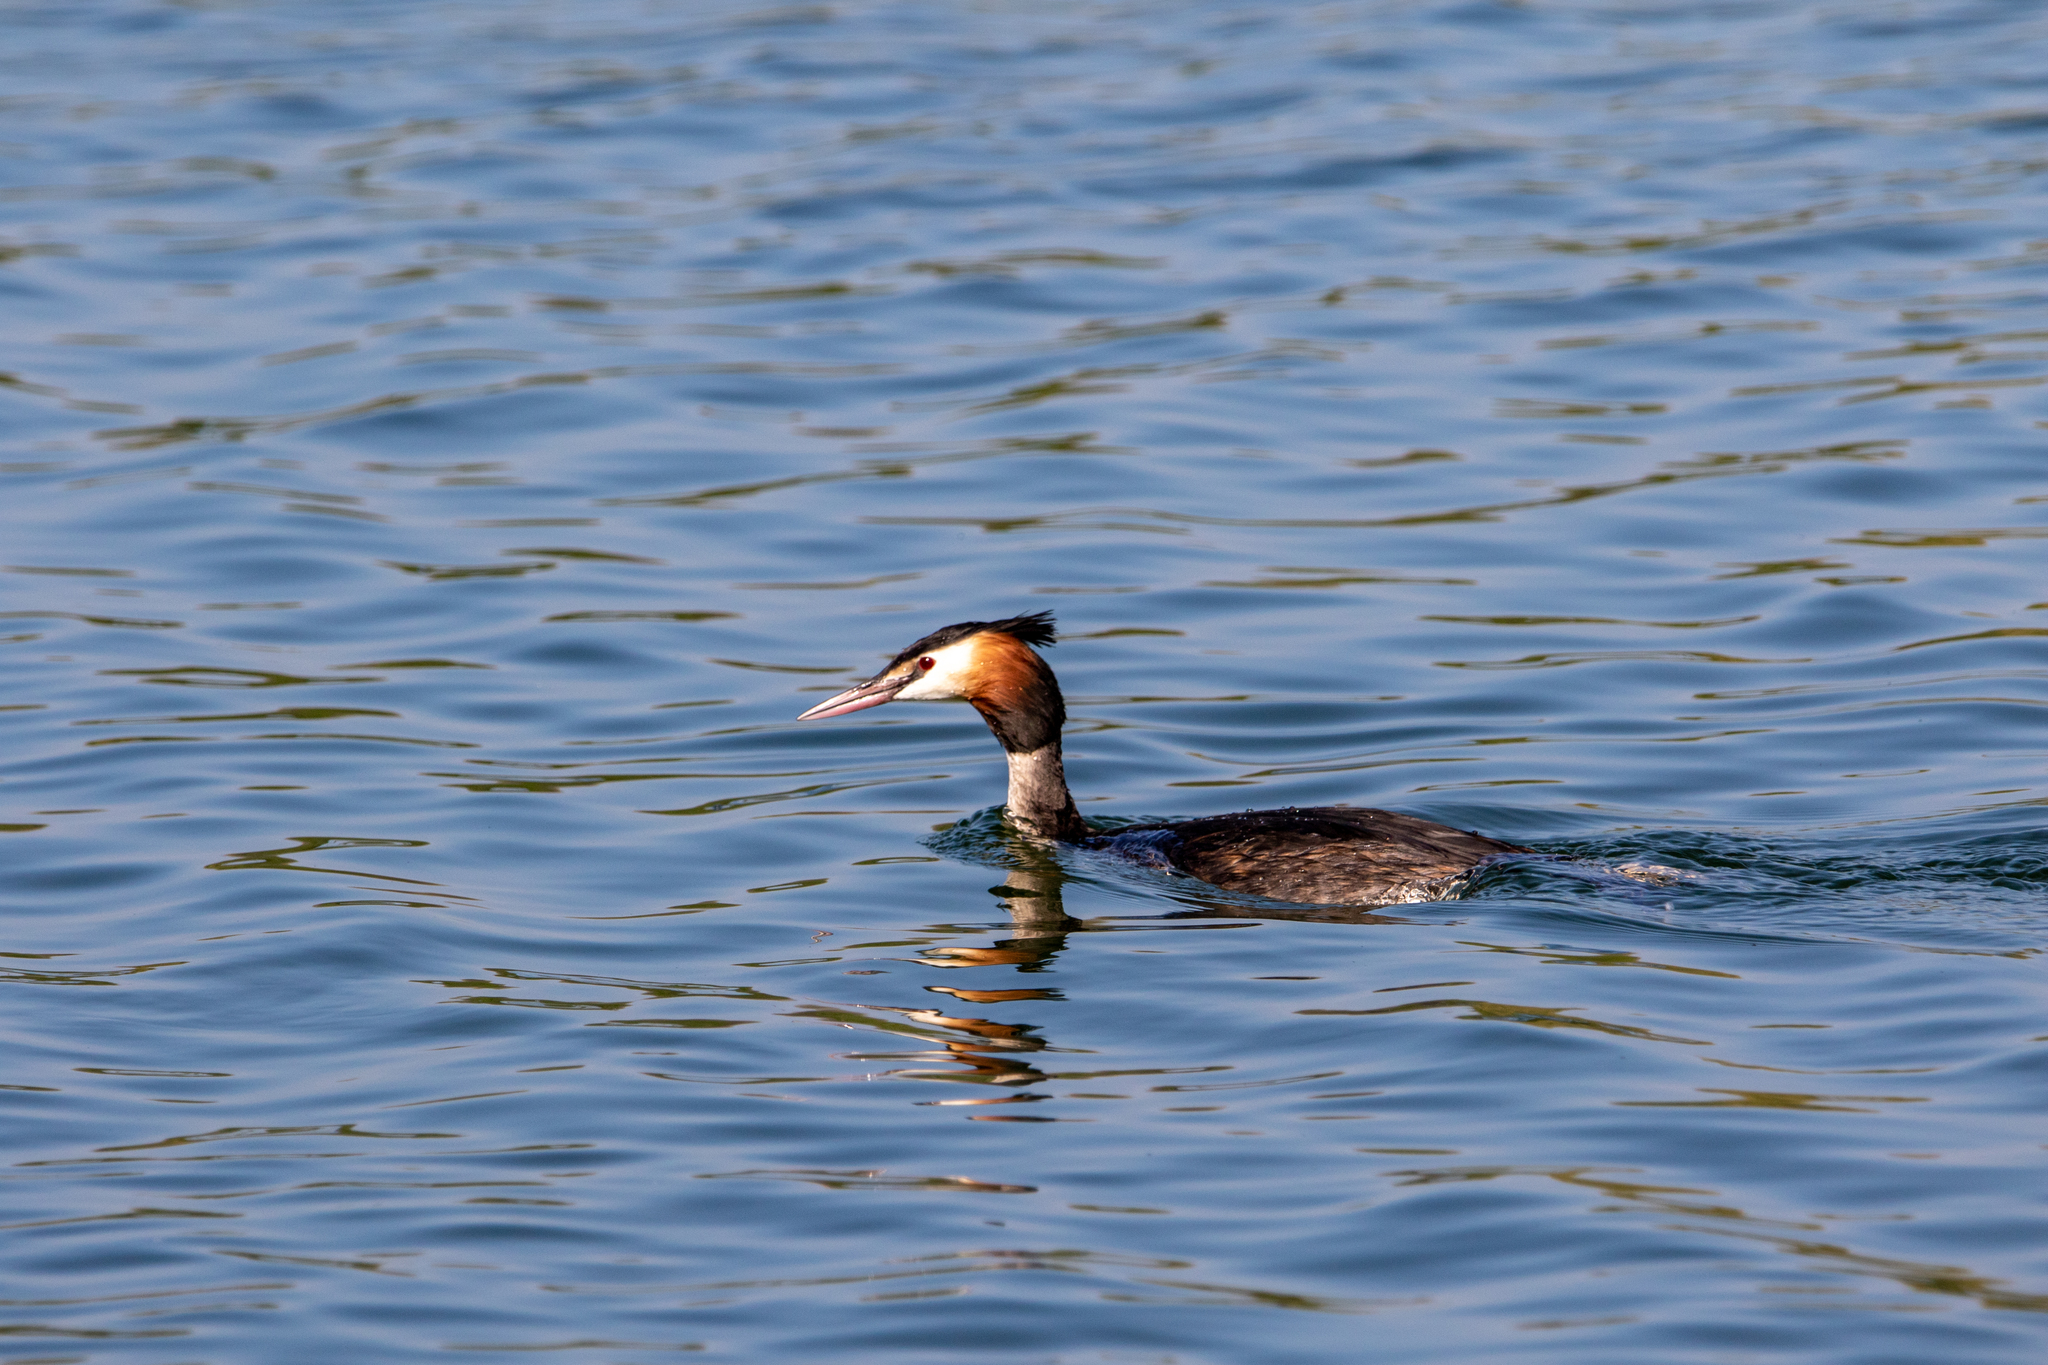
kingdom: Animalia
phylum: Chordata
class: Aves
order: Podicipediformes
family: Podicipedidae
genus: Podiceps
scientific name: Podiceps cristatus
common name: Great crested grebe
